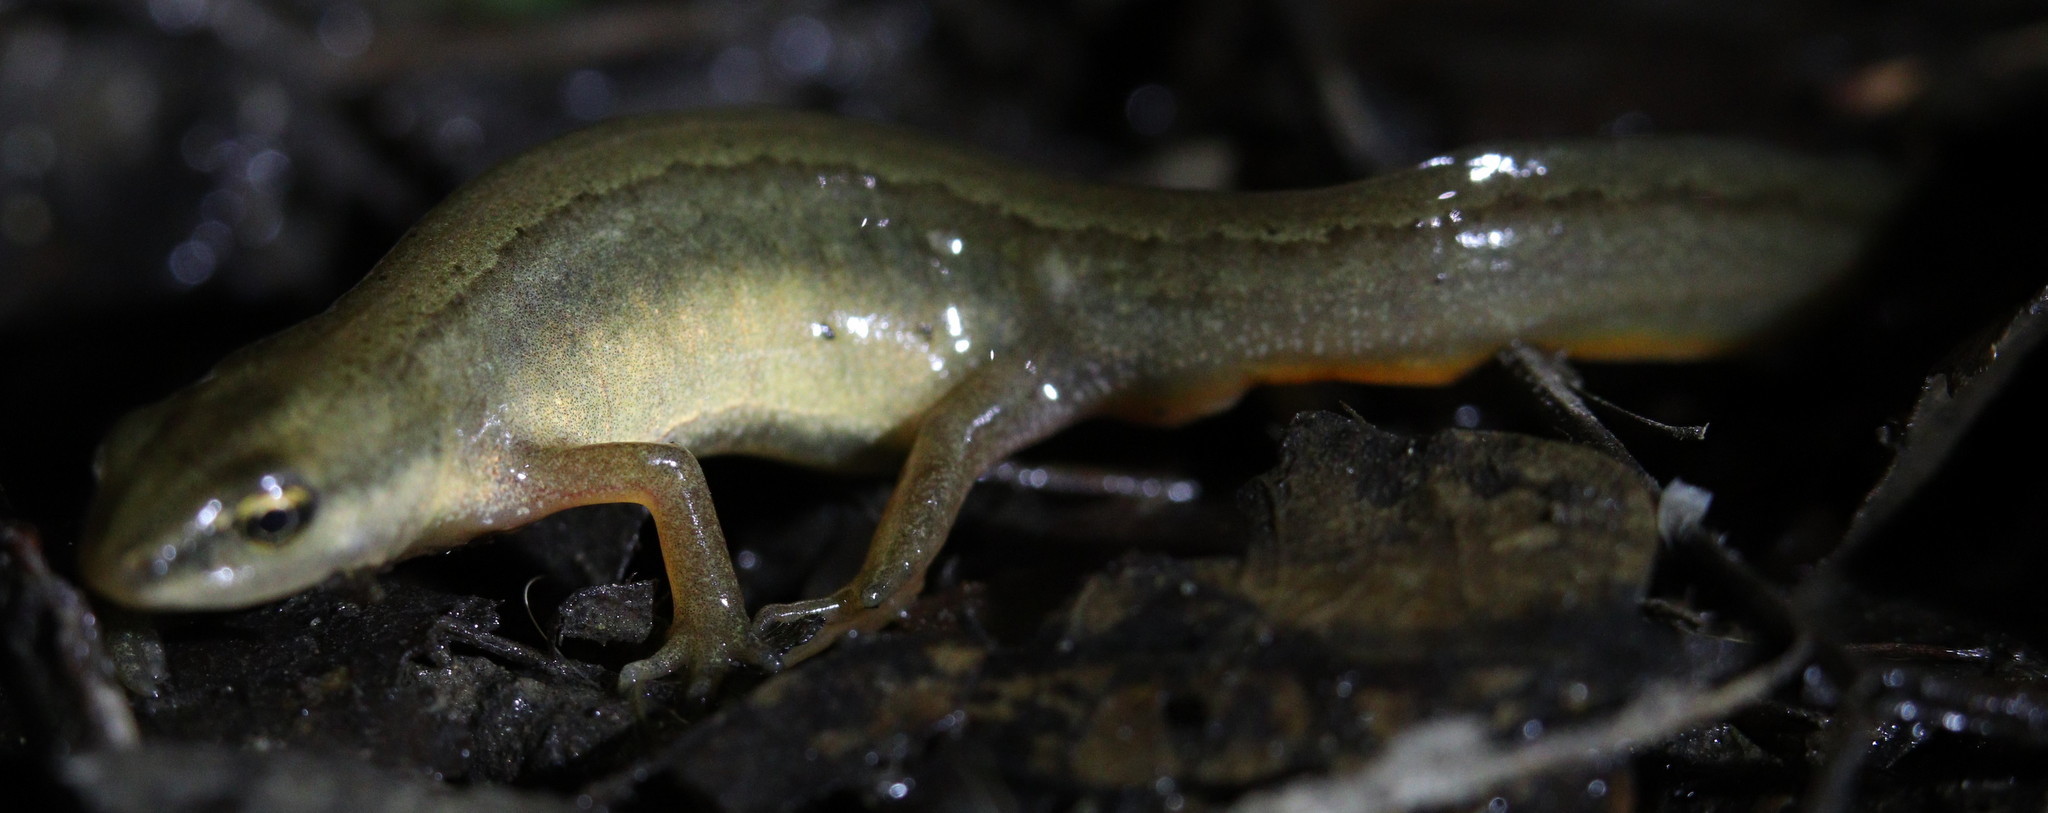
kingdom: Animalia
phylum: Chordata
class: Amphibia
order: Caudata
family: Salamandridae
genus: Lissotriton
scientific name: Lissotriton vulgaris
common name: Smooth newt
